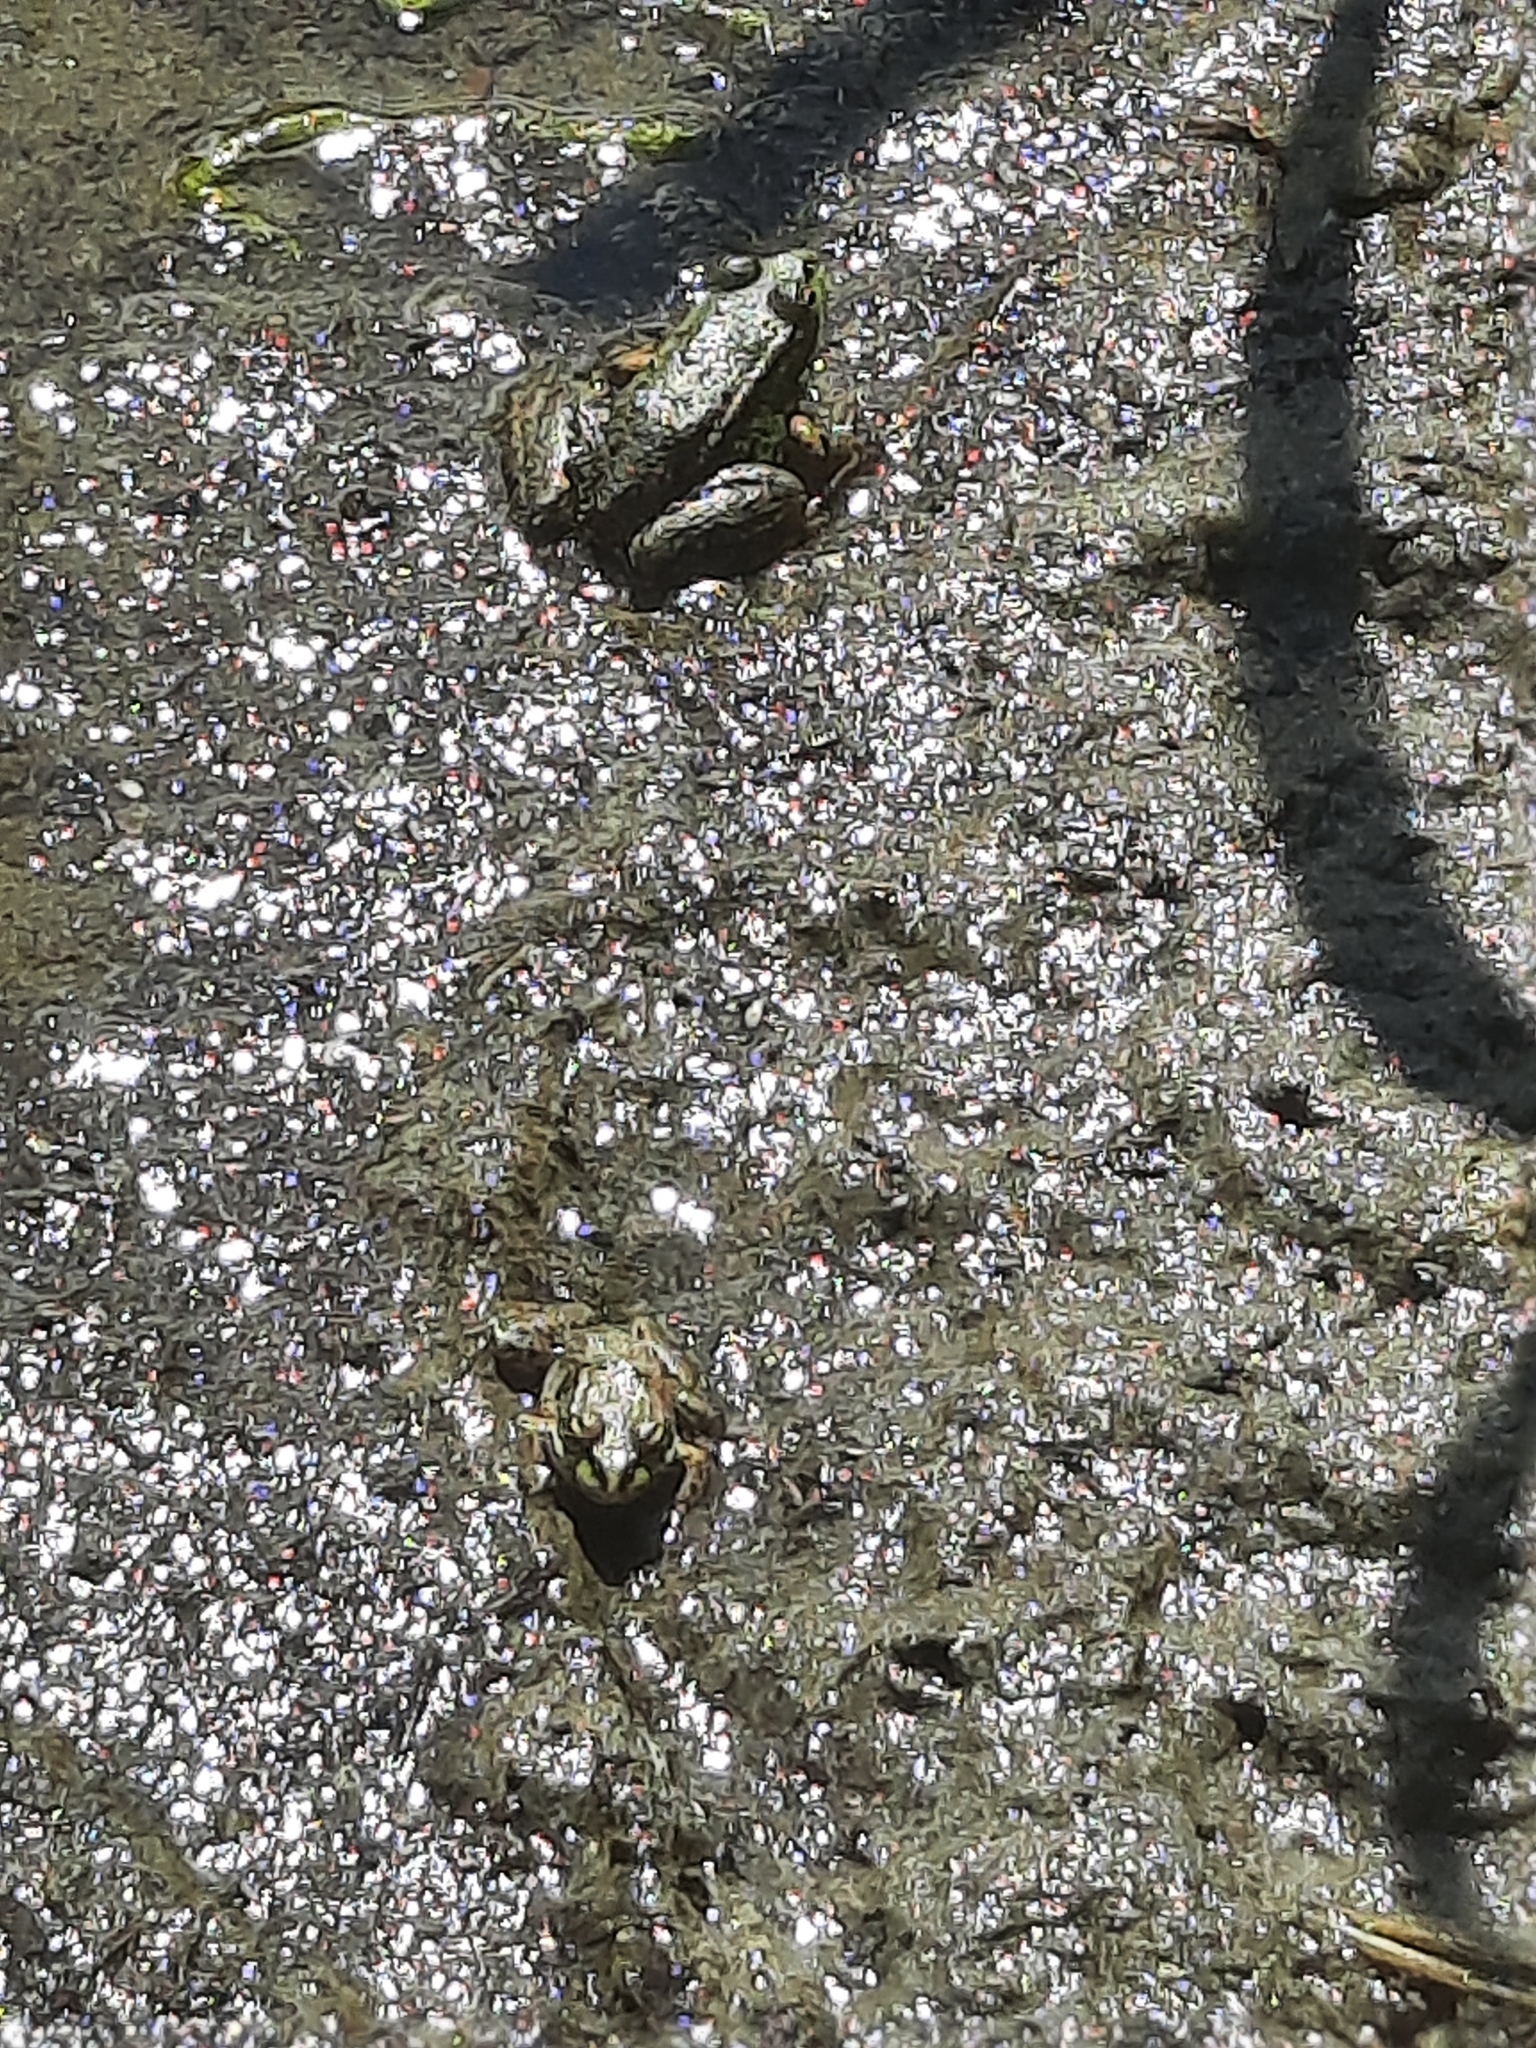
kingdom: Animalia
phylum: Chordata
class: Amphibia
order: Anura
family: Ranidae
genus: Pelophylax
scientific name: Pelophylax ridibundus
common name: Marsh frog
